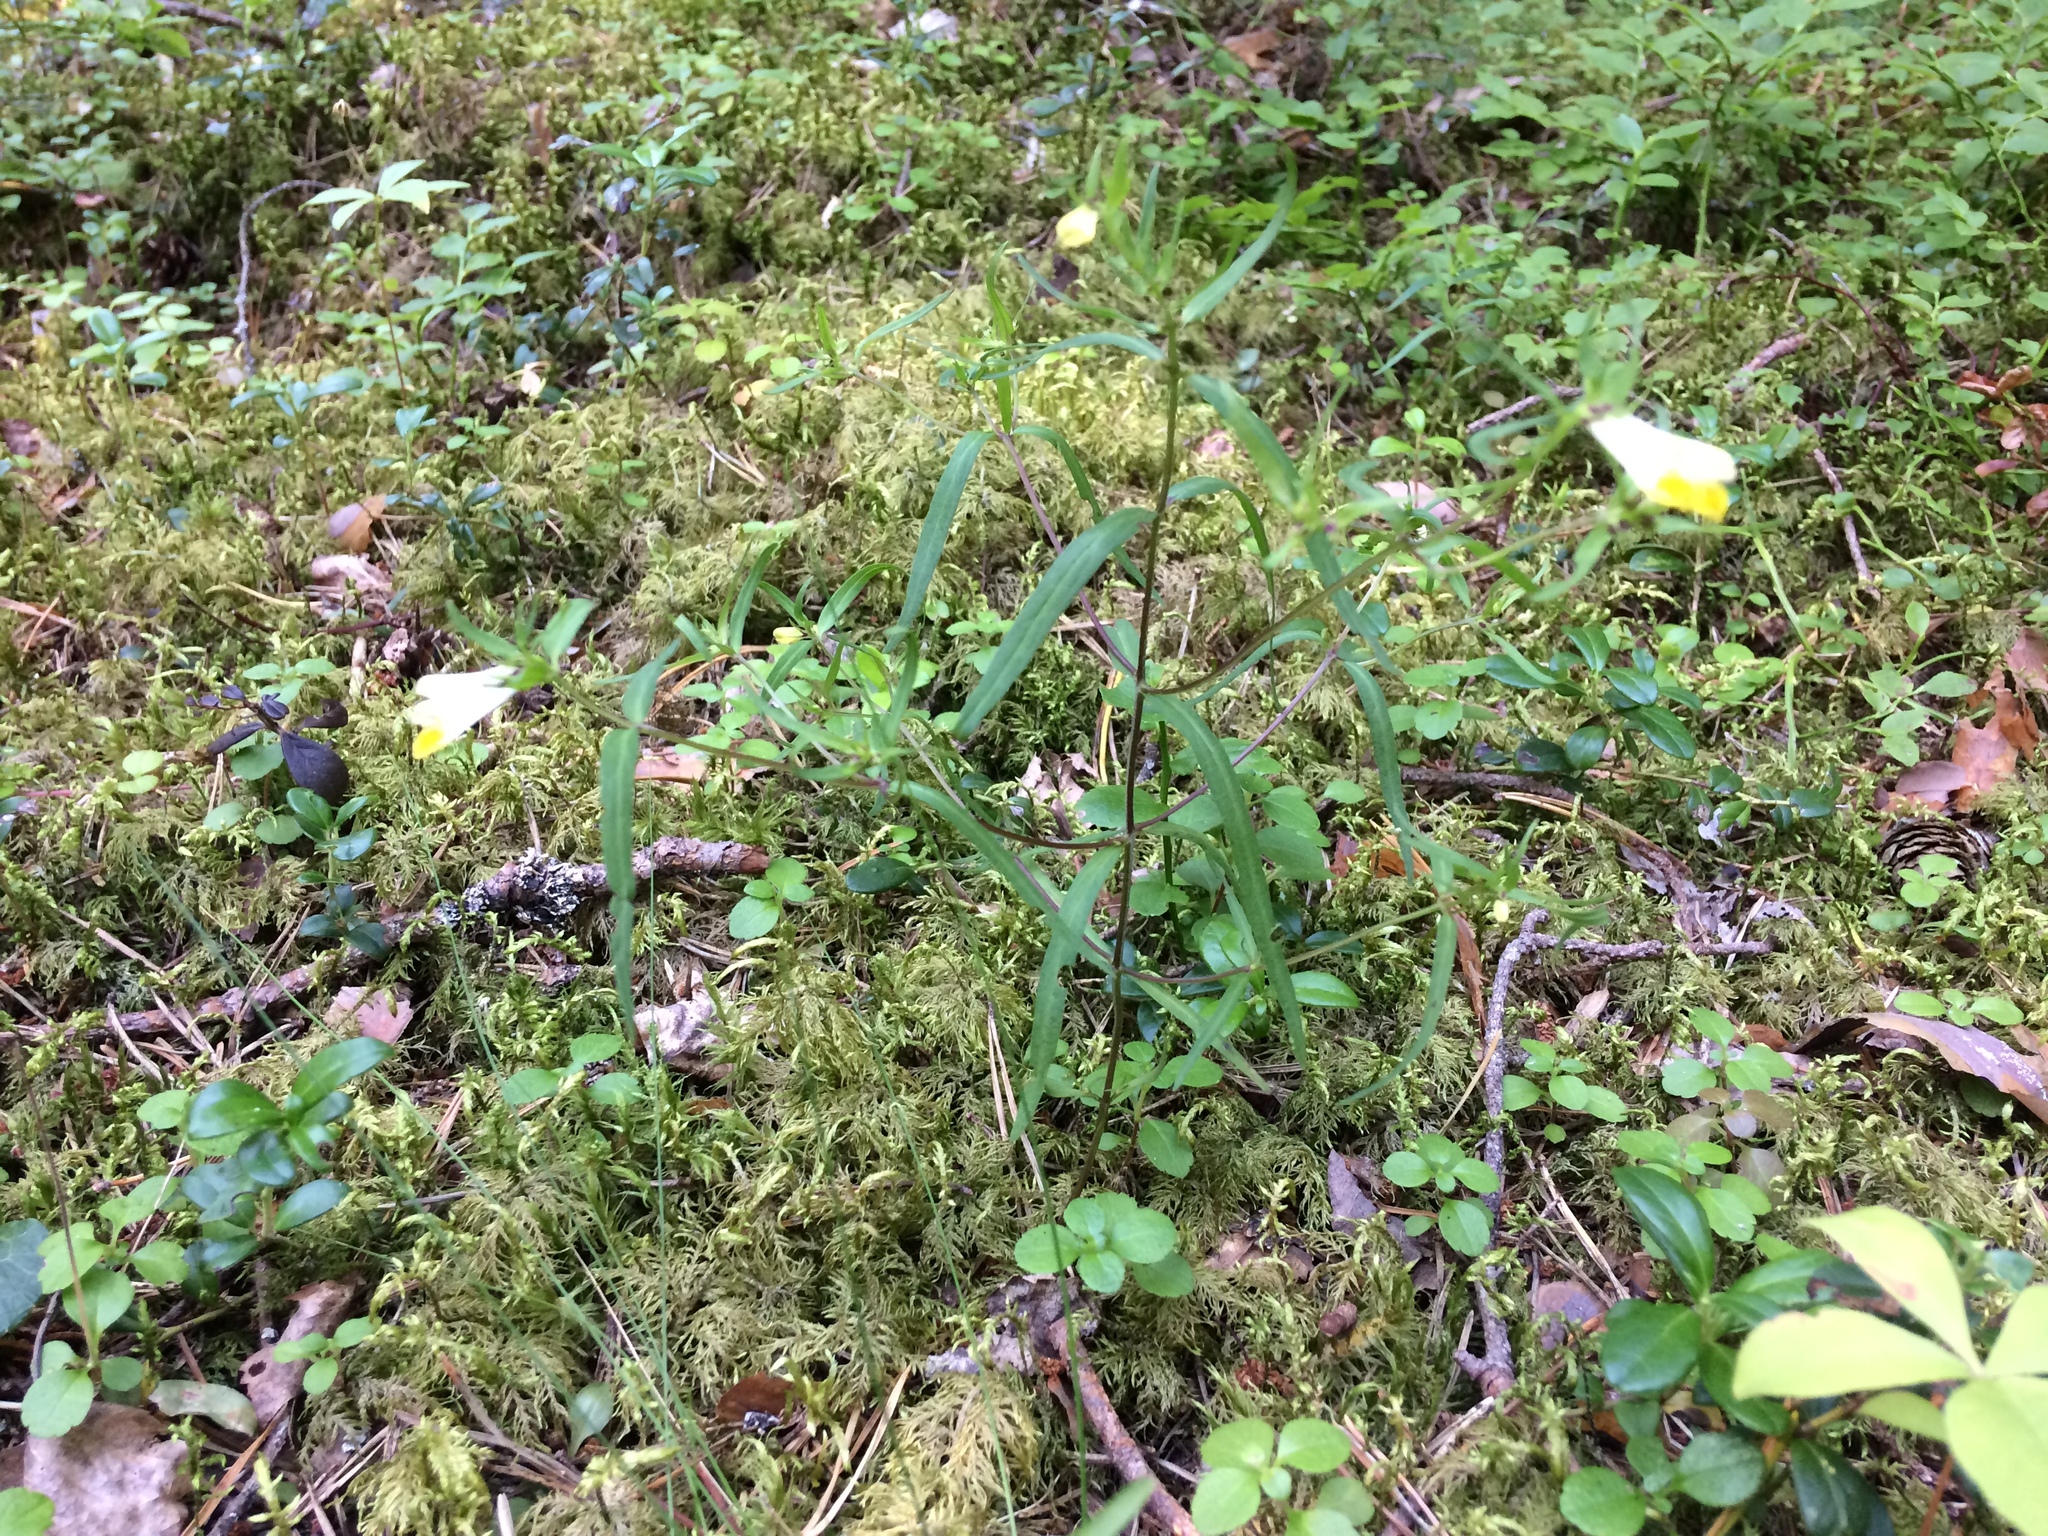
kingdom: Plantae
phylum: Tracheophyta
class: Magnoliopsida
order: Lamiales
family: Orobanchaceae
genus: Melampyrum
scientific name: Melampyrum pratense
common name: Common cow-wheat
